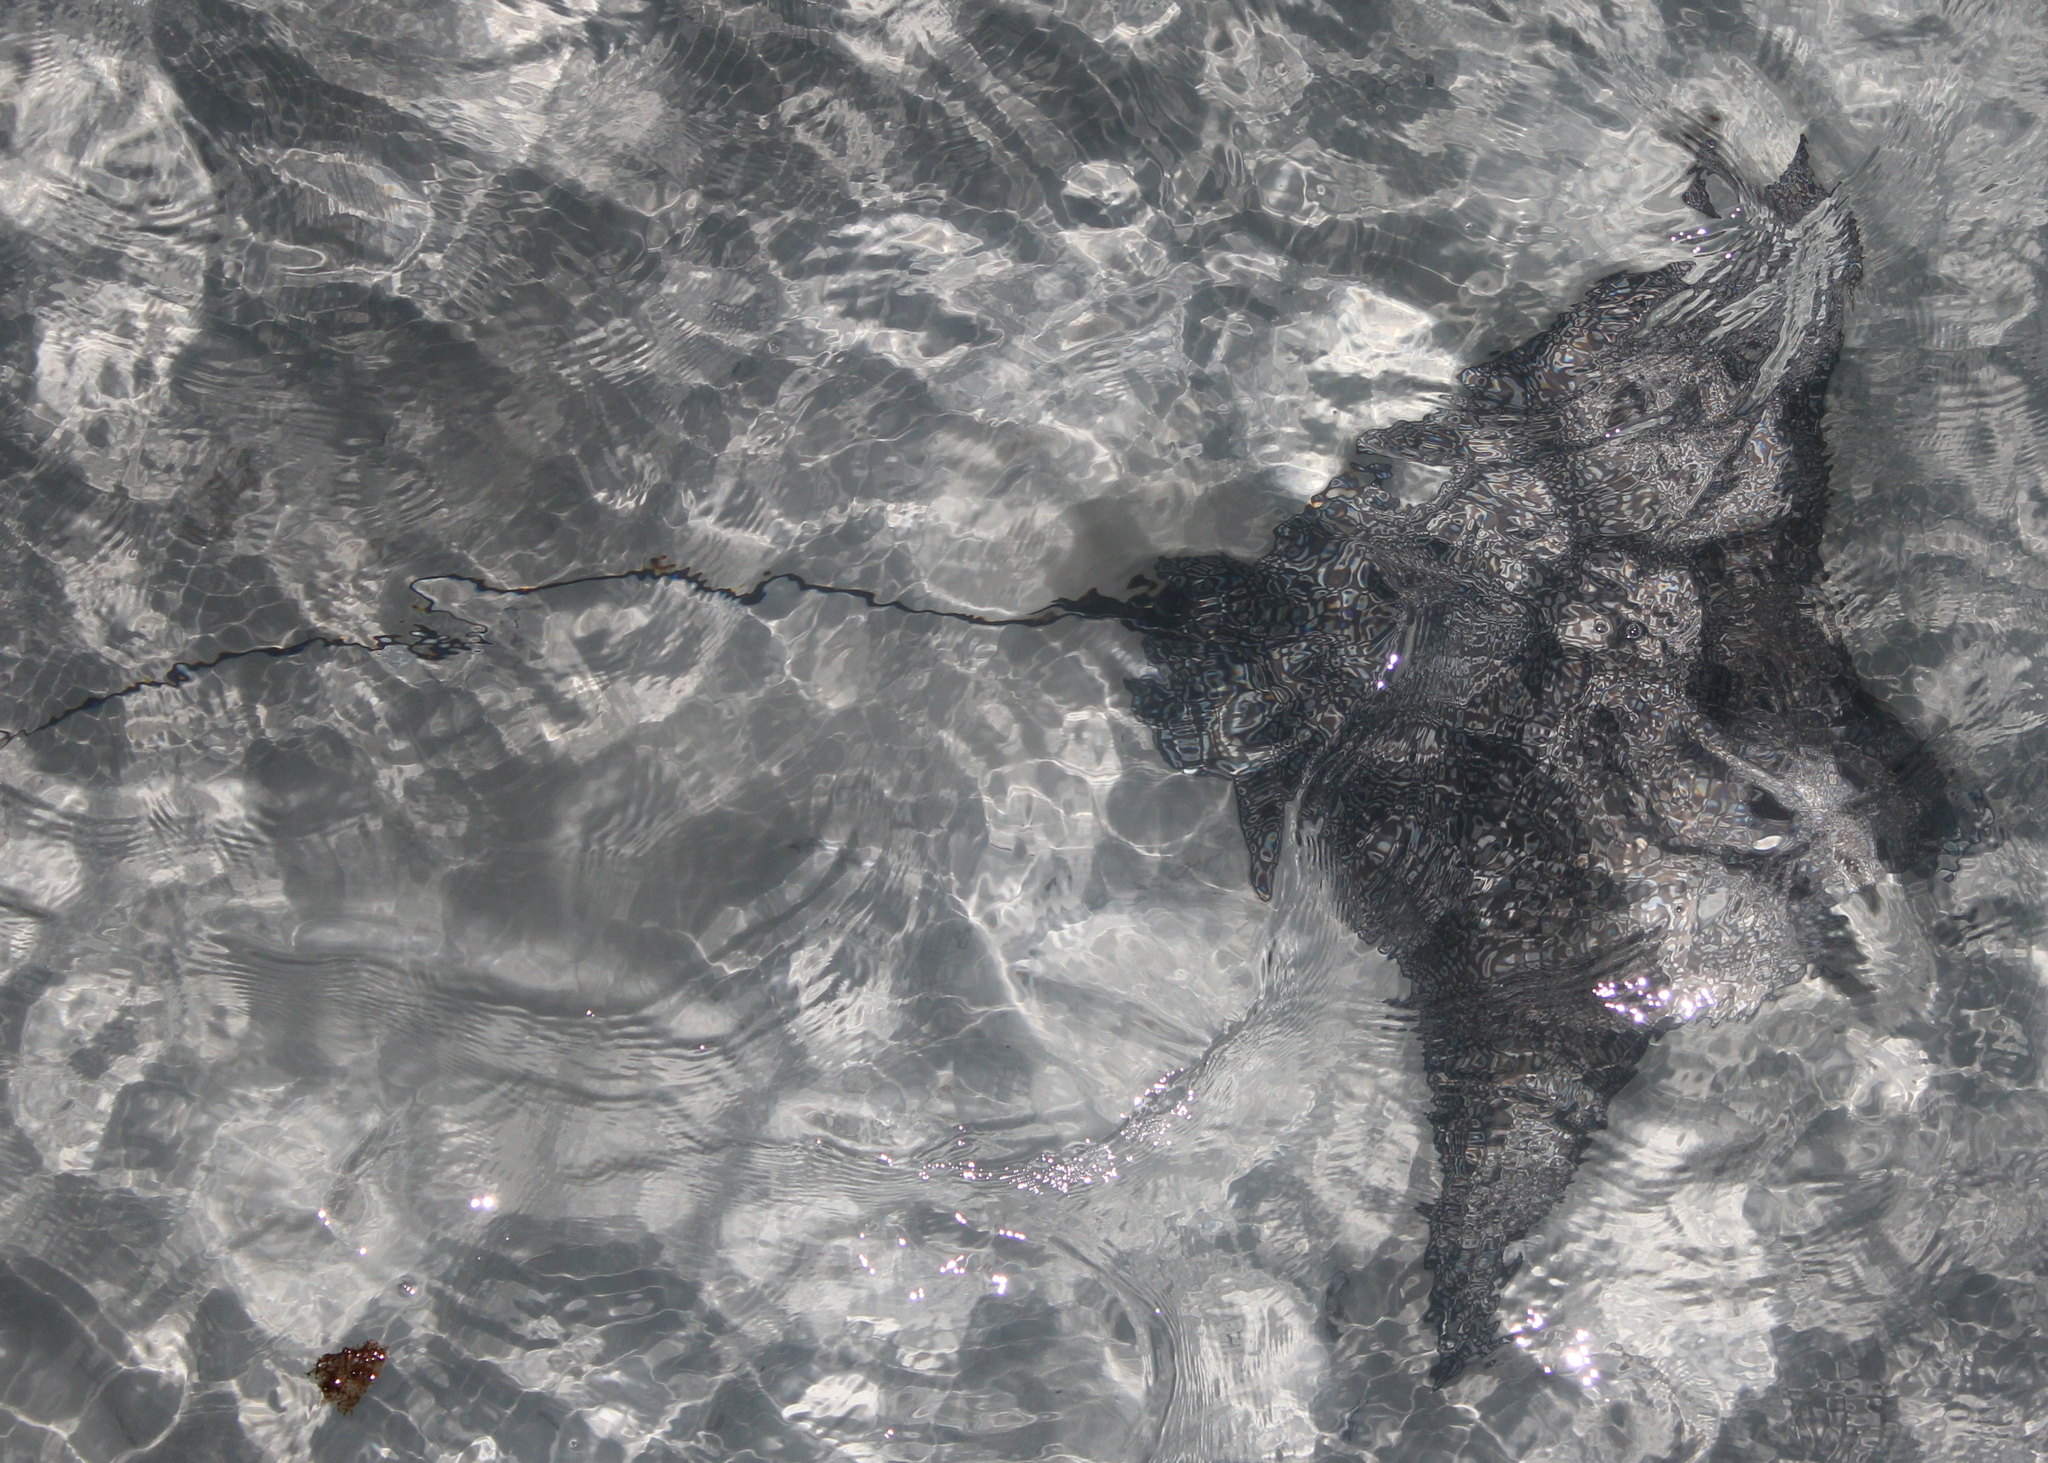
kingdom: Animalia
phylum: Chordata
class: Elasmobranchii
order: Myliobatiformes
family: Myliobatidae
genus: Aetobatus
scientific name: Aetobatus ocellatus
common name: Ocellated eagle ray
